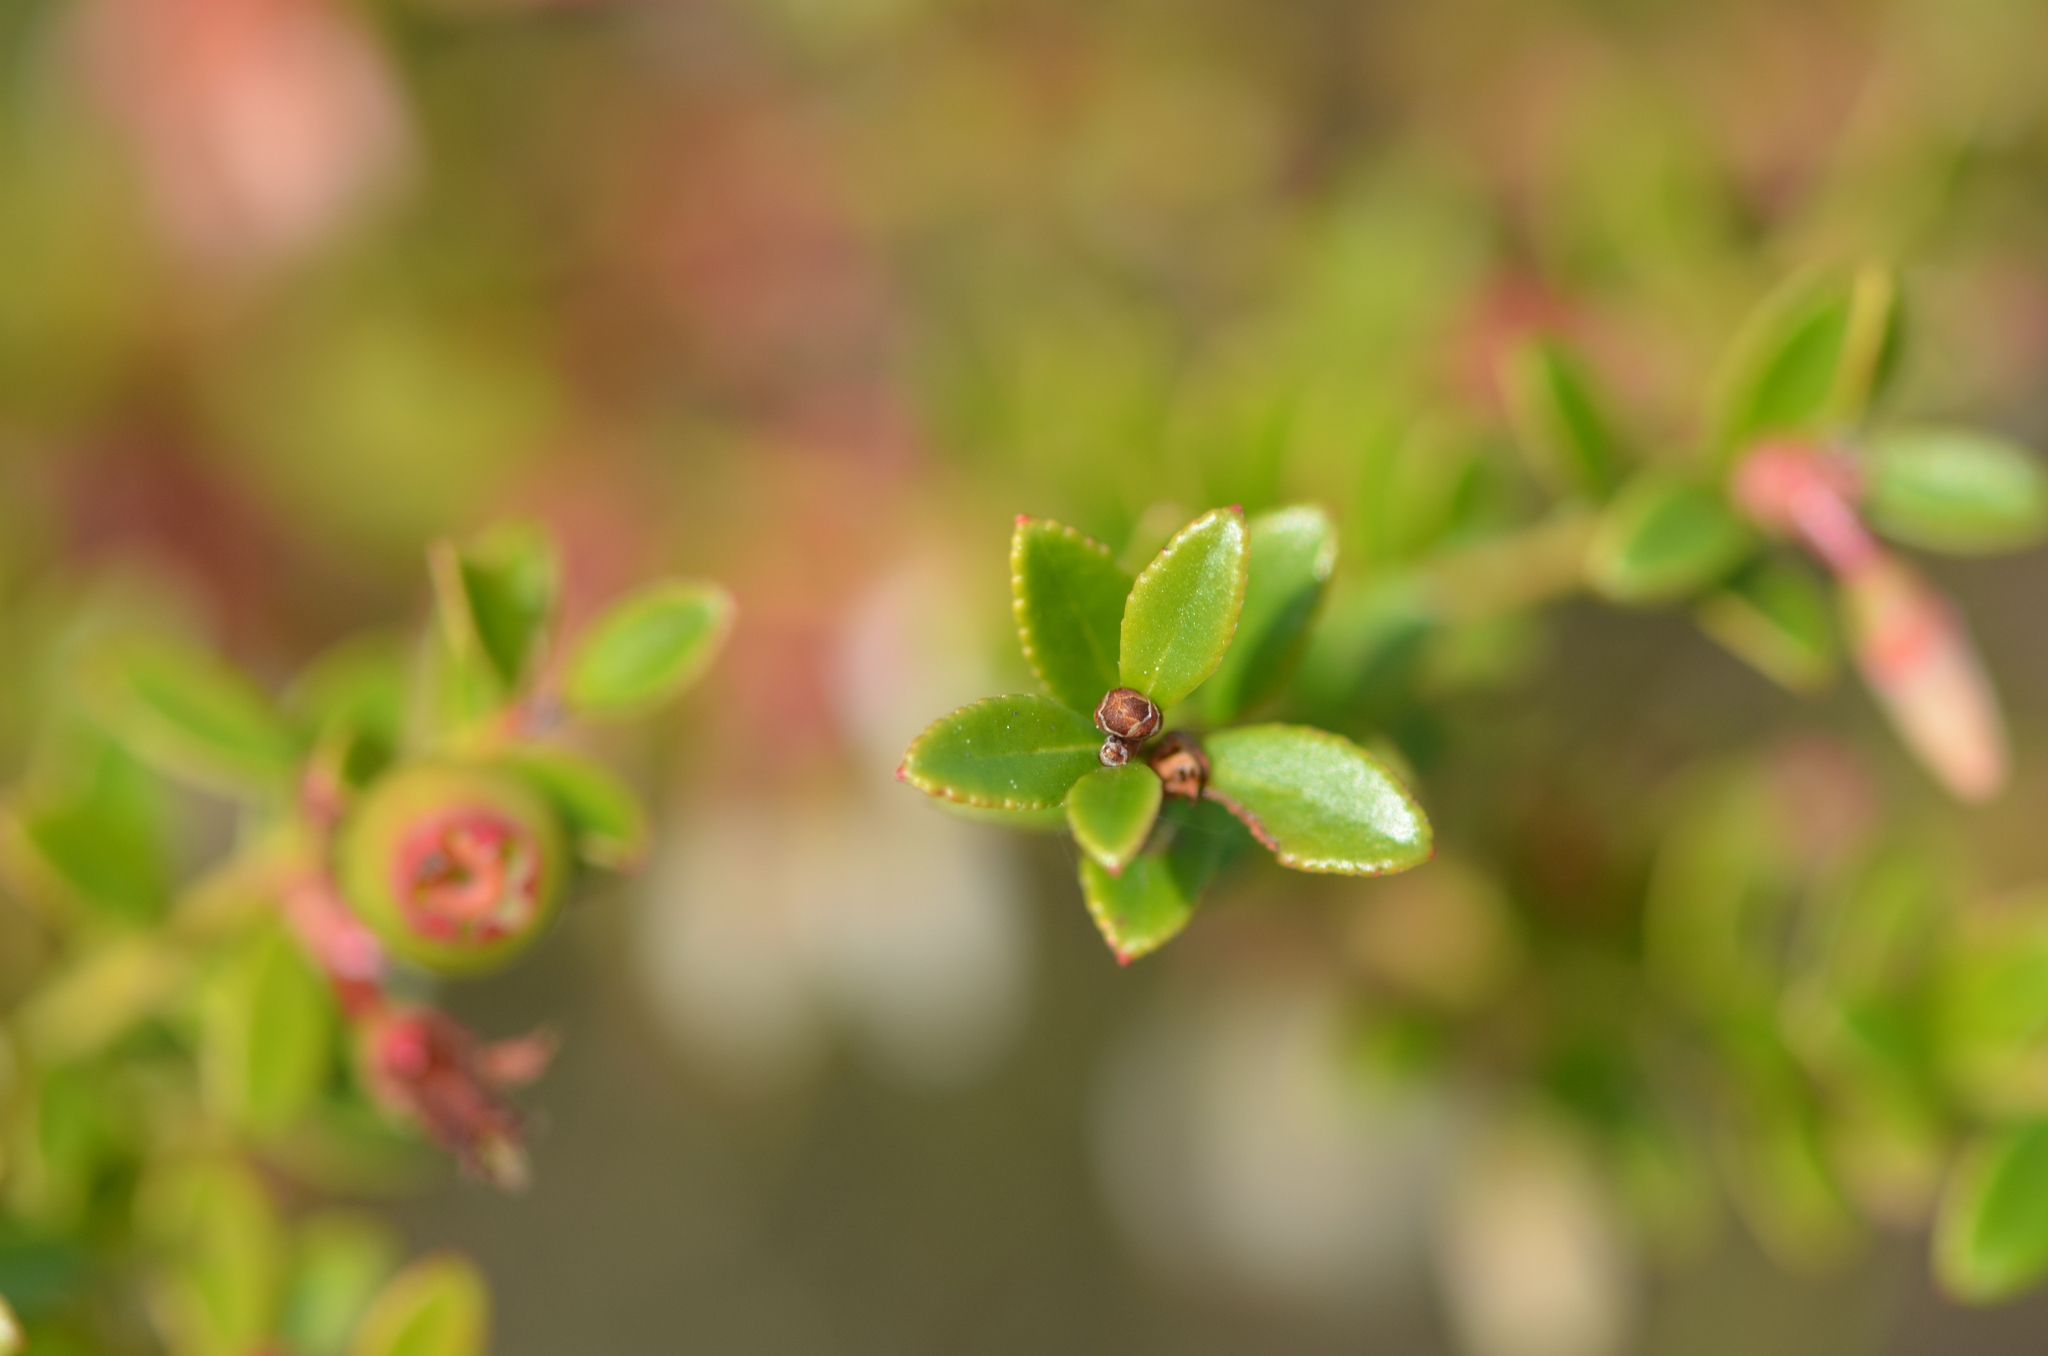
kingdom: Plantae
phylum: Tracheophyta
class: Magnoliopsida
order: Ericales
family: Ericaceae
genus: Vaccinium
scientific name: Vaccinium myrsinites
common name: Evergreen blueberry
